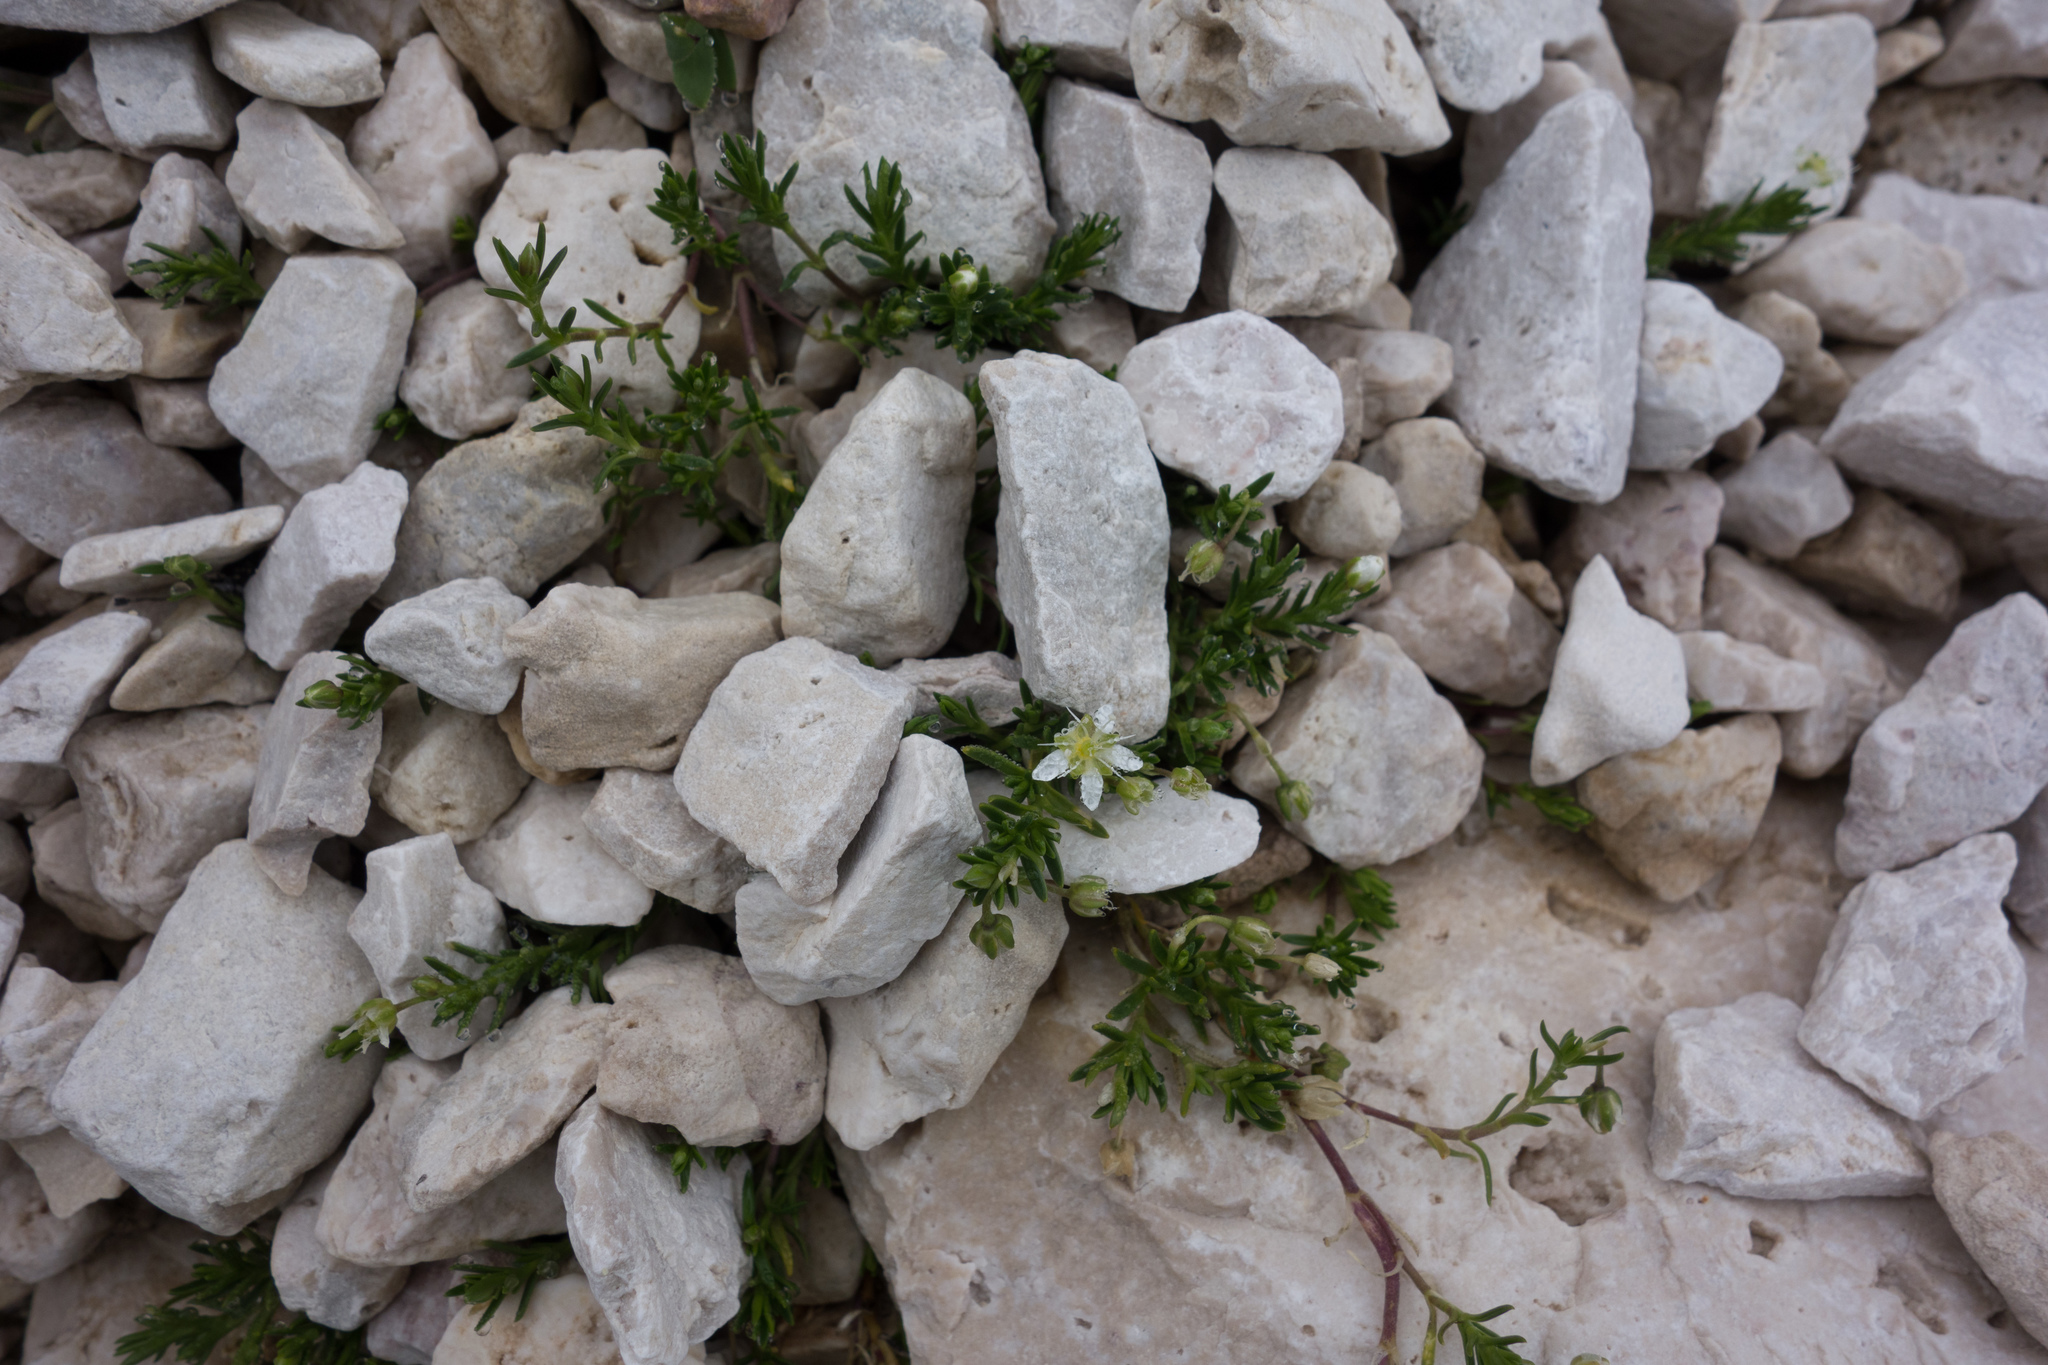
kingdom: Plantae
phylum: Tracheophyta
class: Magnoliopsida
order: Caryophyllales
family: Caryophyllaceae
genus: Moehringia
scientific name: Moehringia ciliata
